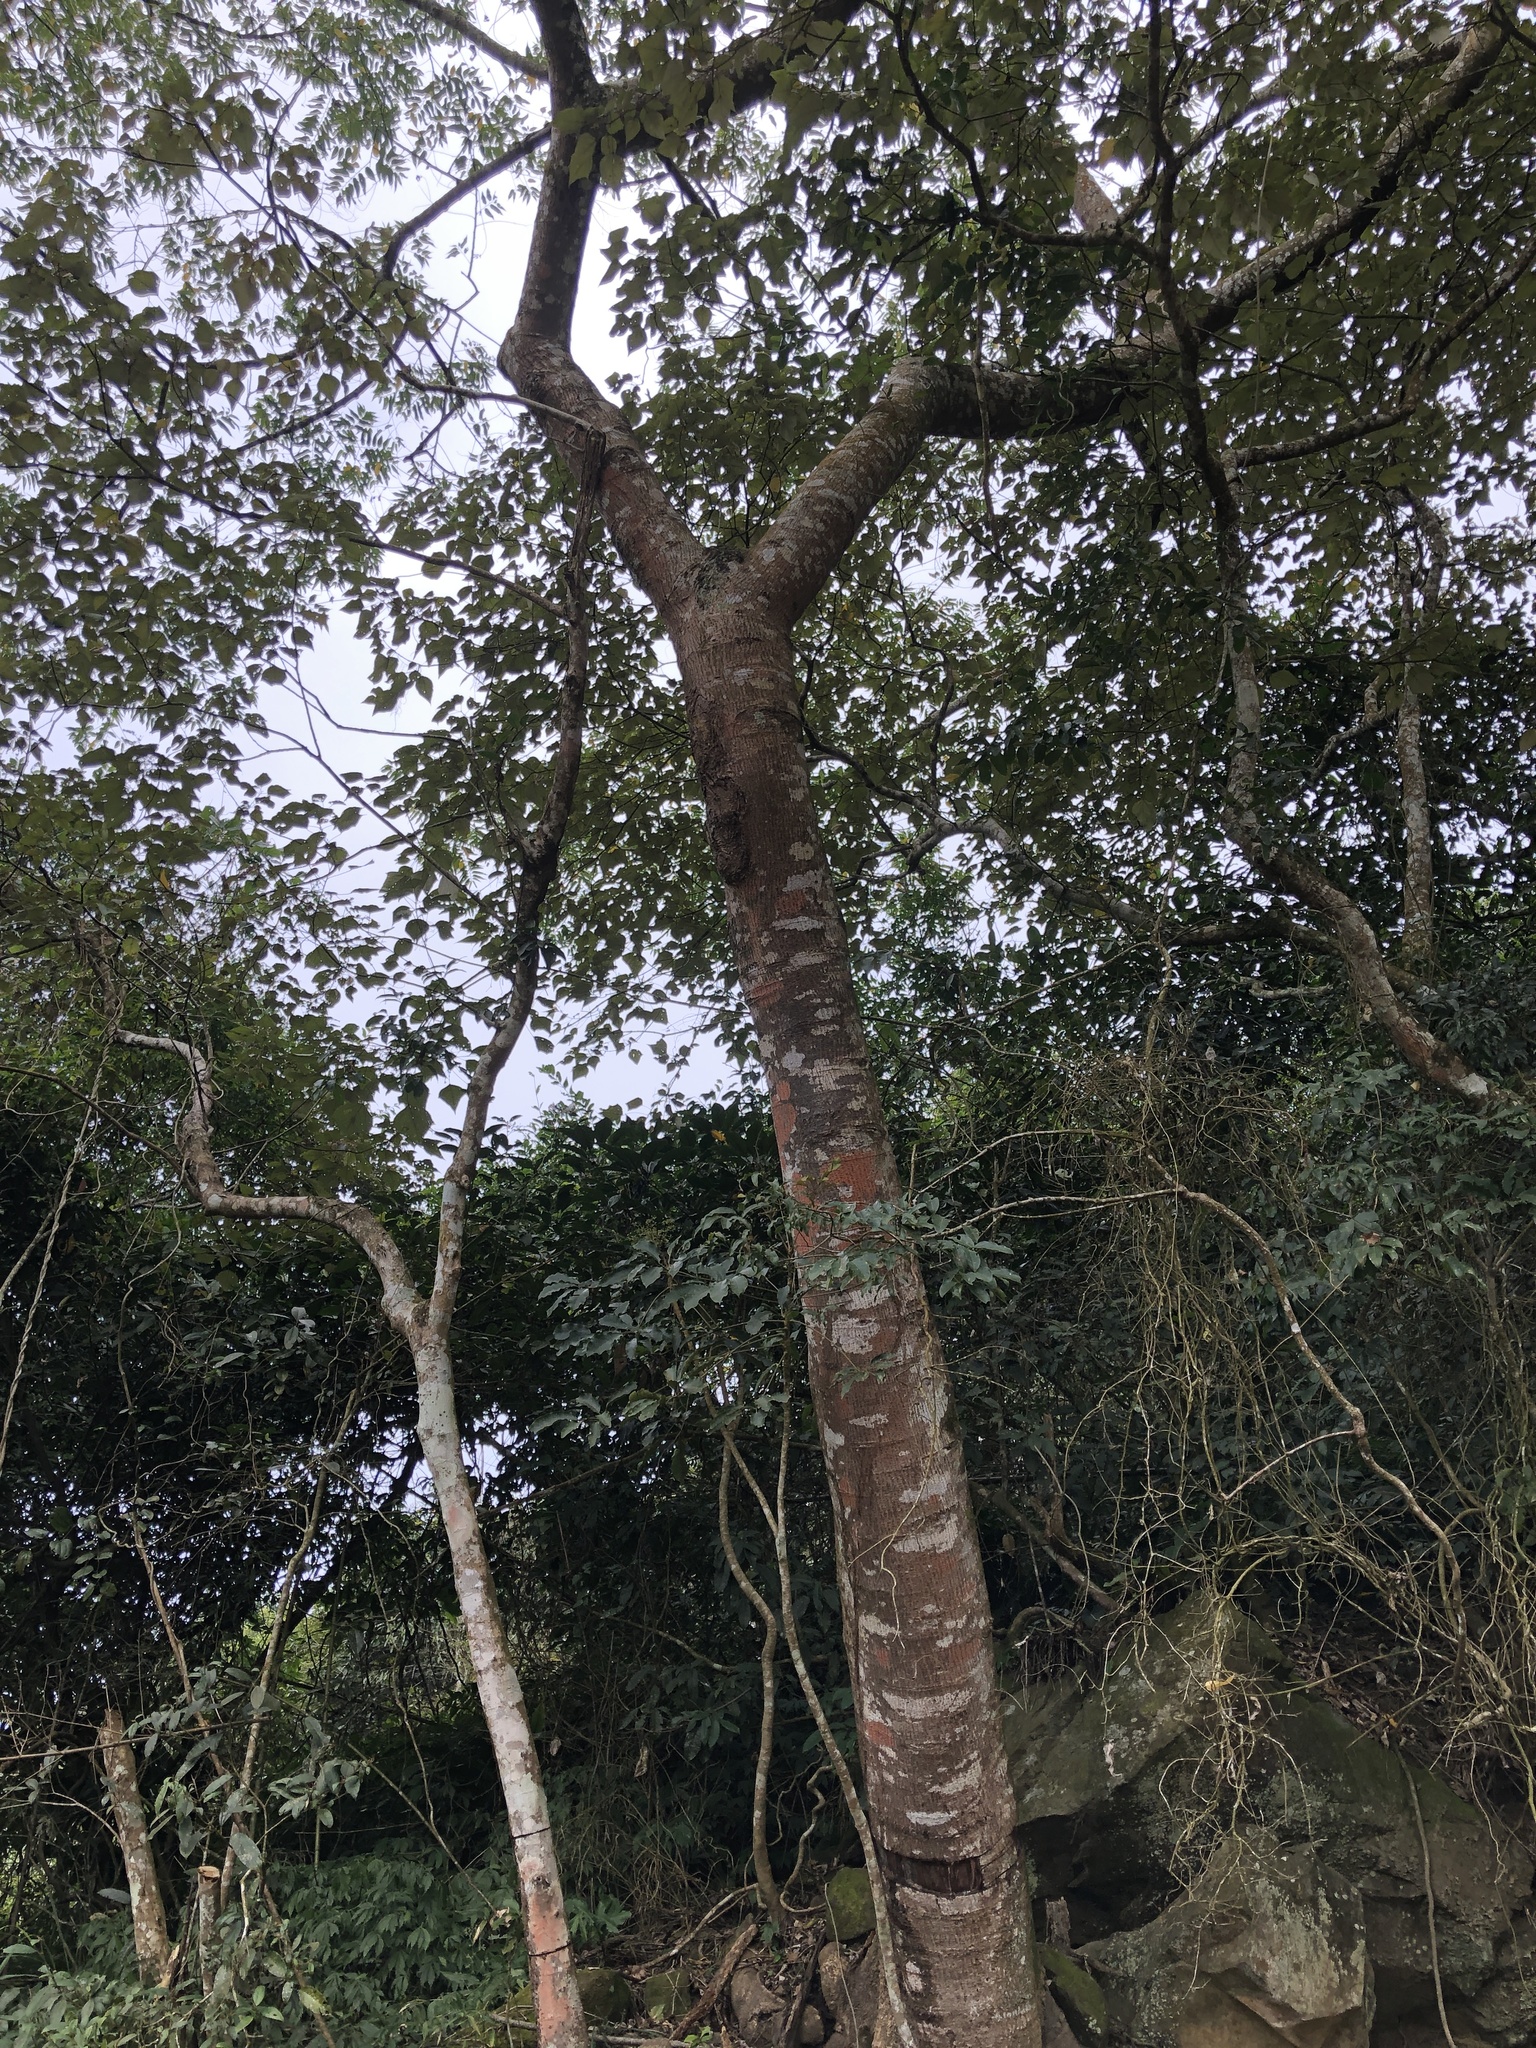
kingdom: Plantae
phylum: Tracheophyta
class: Magnoliopsida
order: Rosales
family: Cannabaceae
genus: Trema
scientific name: Trema orientale
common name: Indian charcoal tree
